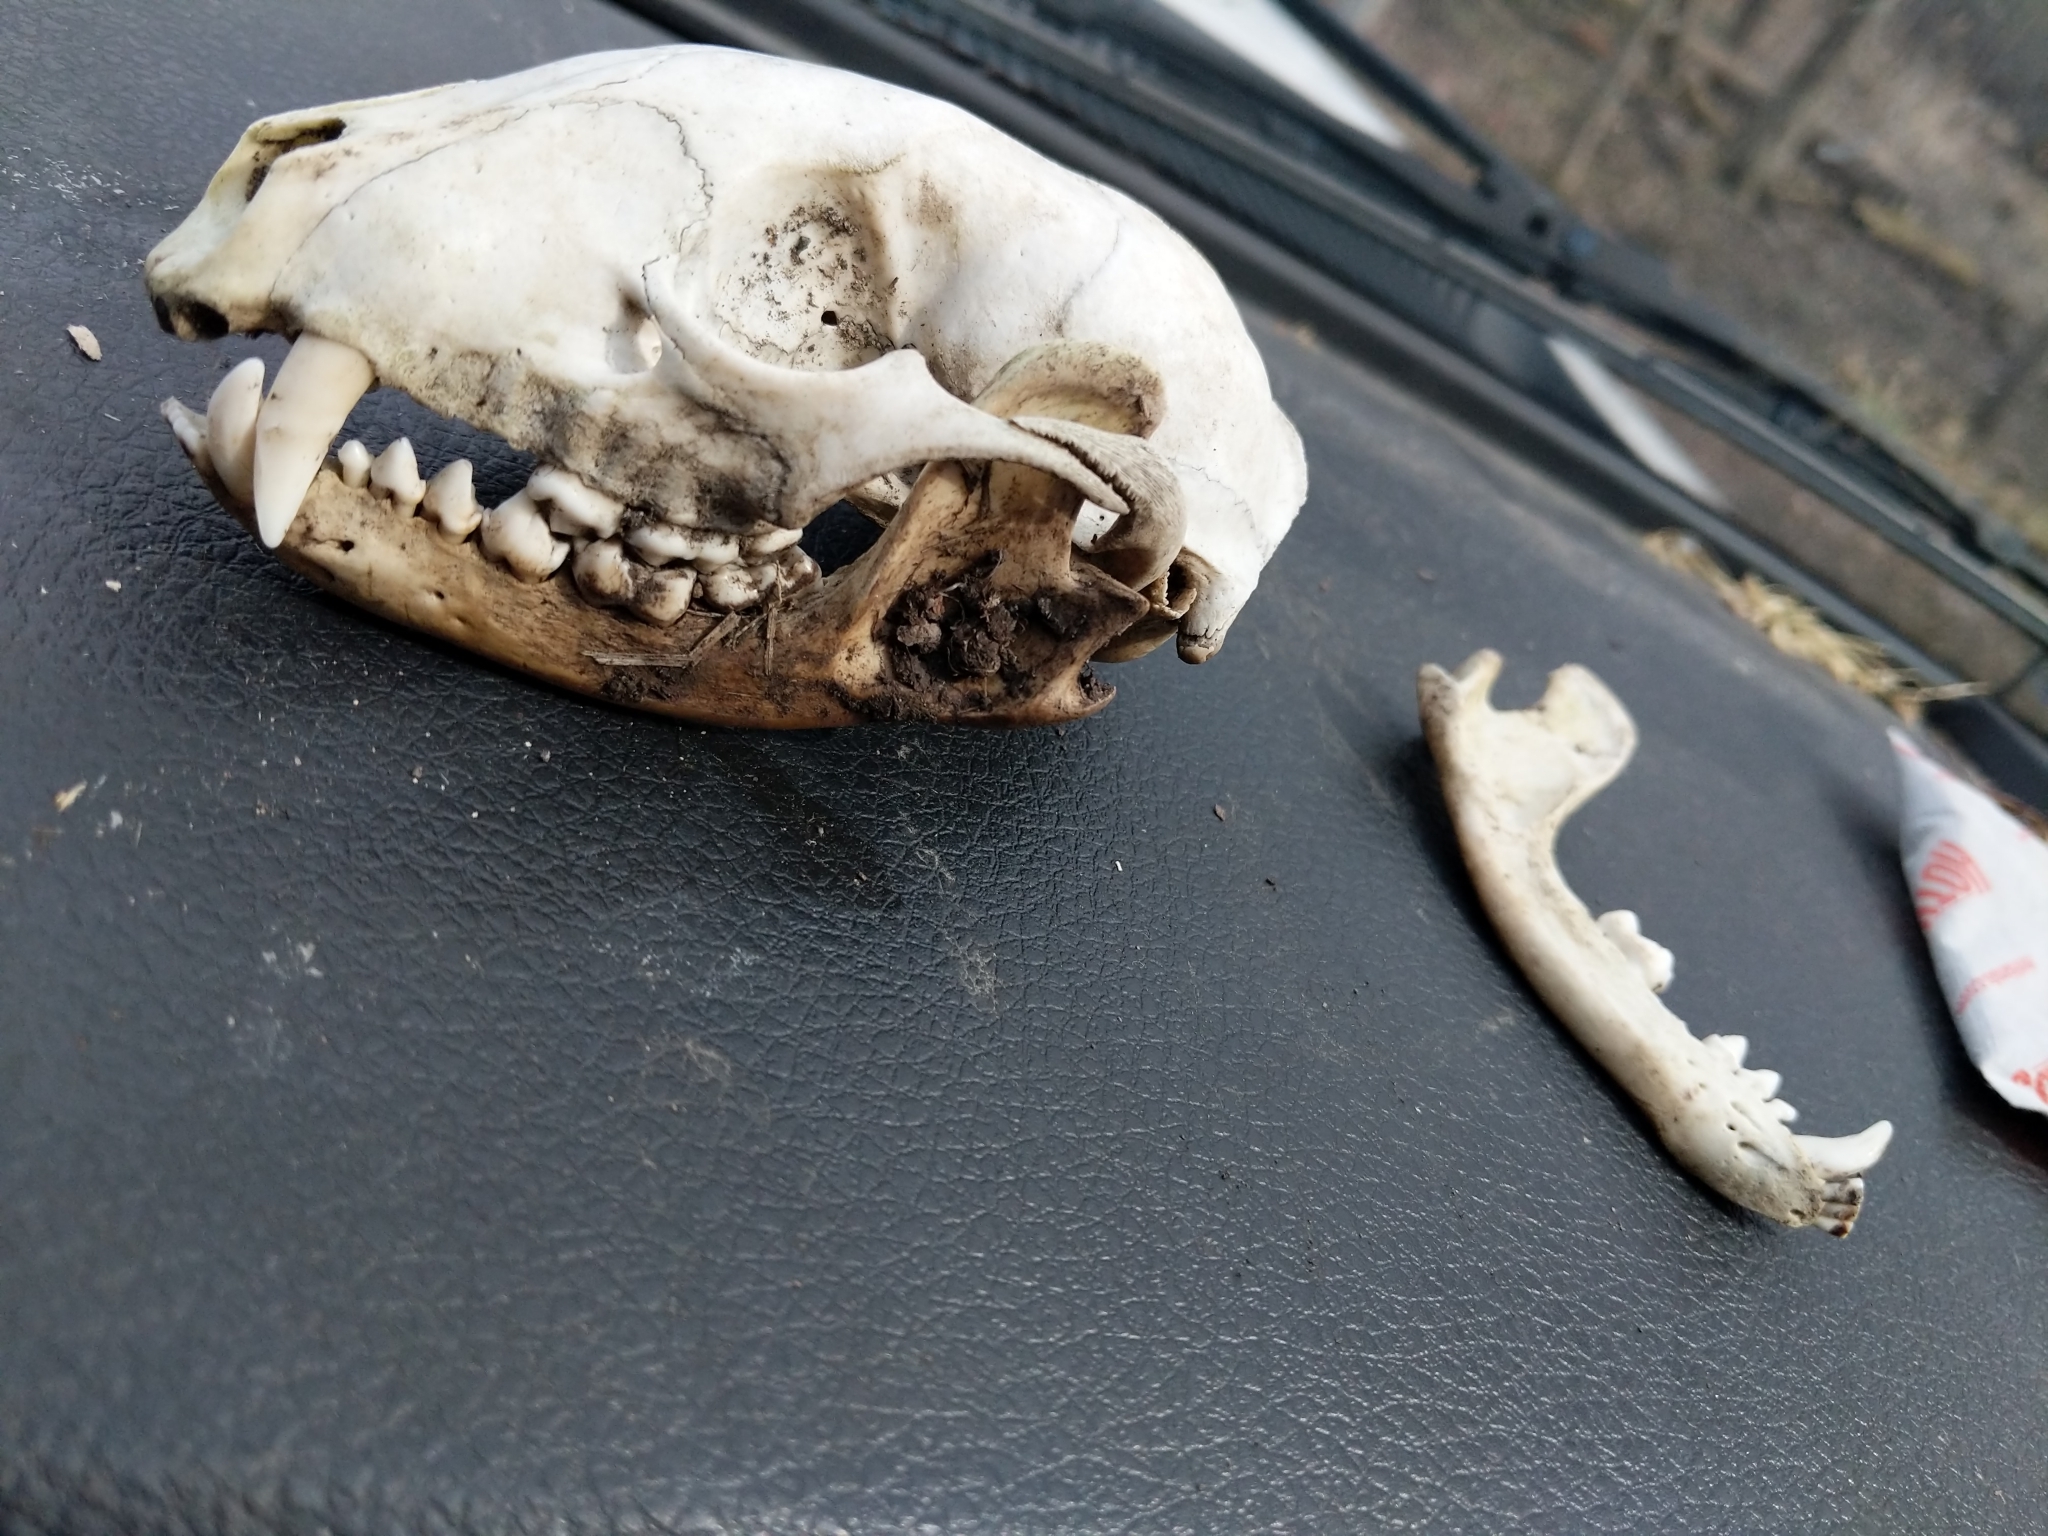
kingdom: Animalia
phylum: Chordata
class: Mammalia
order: Carnivora
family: Procyonidae
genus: Procyon
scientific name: Procyon lotor
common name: Raccoon
